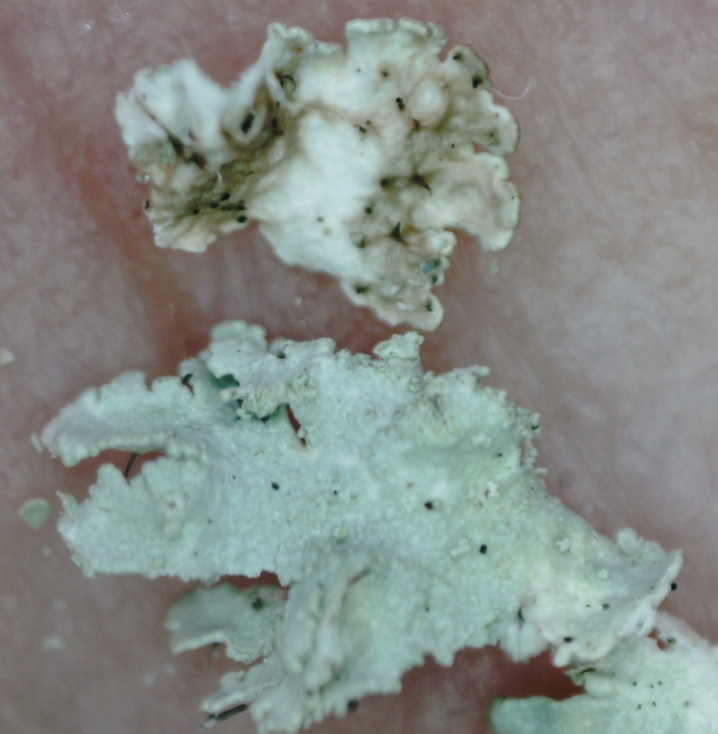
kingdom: Fungi
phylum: Ascomycota
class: Lecanoromycetes
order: Lecanorales
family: Parmeliaceae
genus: Imshaugia
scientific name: Imshaugia aleurites
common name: Salted starburst lichen
